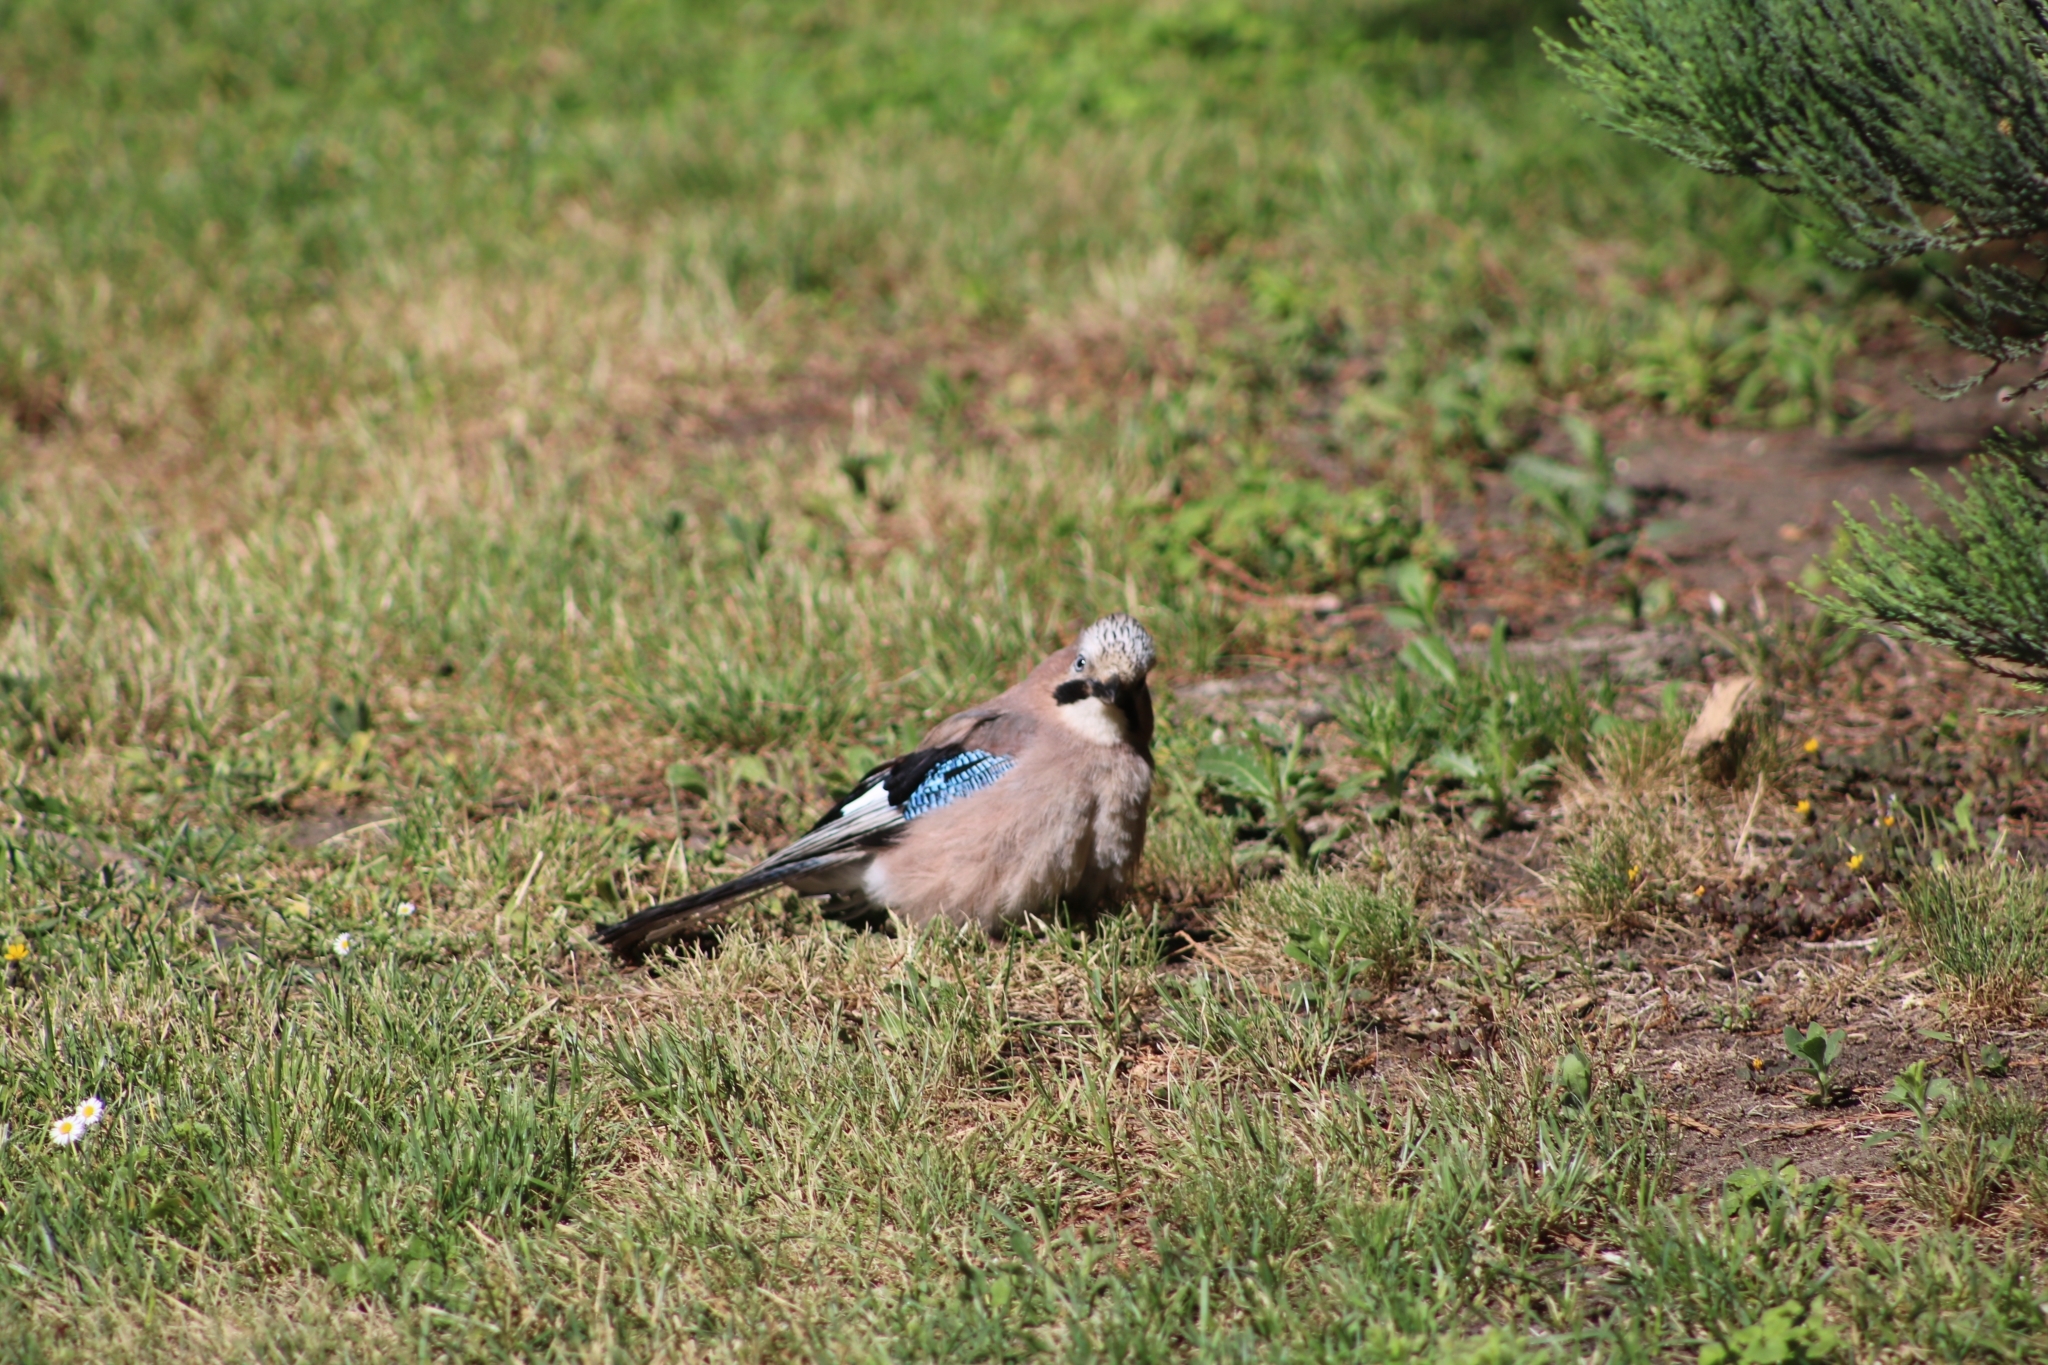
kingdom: Animalia
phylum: Chordata
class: Aves
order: Passeriformes
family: Corvidae
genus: Garrulus
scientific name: Garrulus glandarius
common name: Eurasian jay
